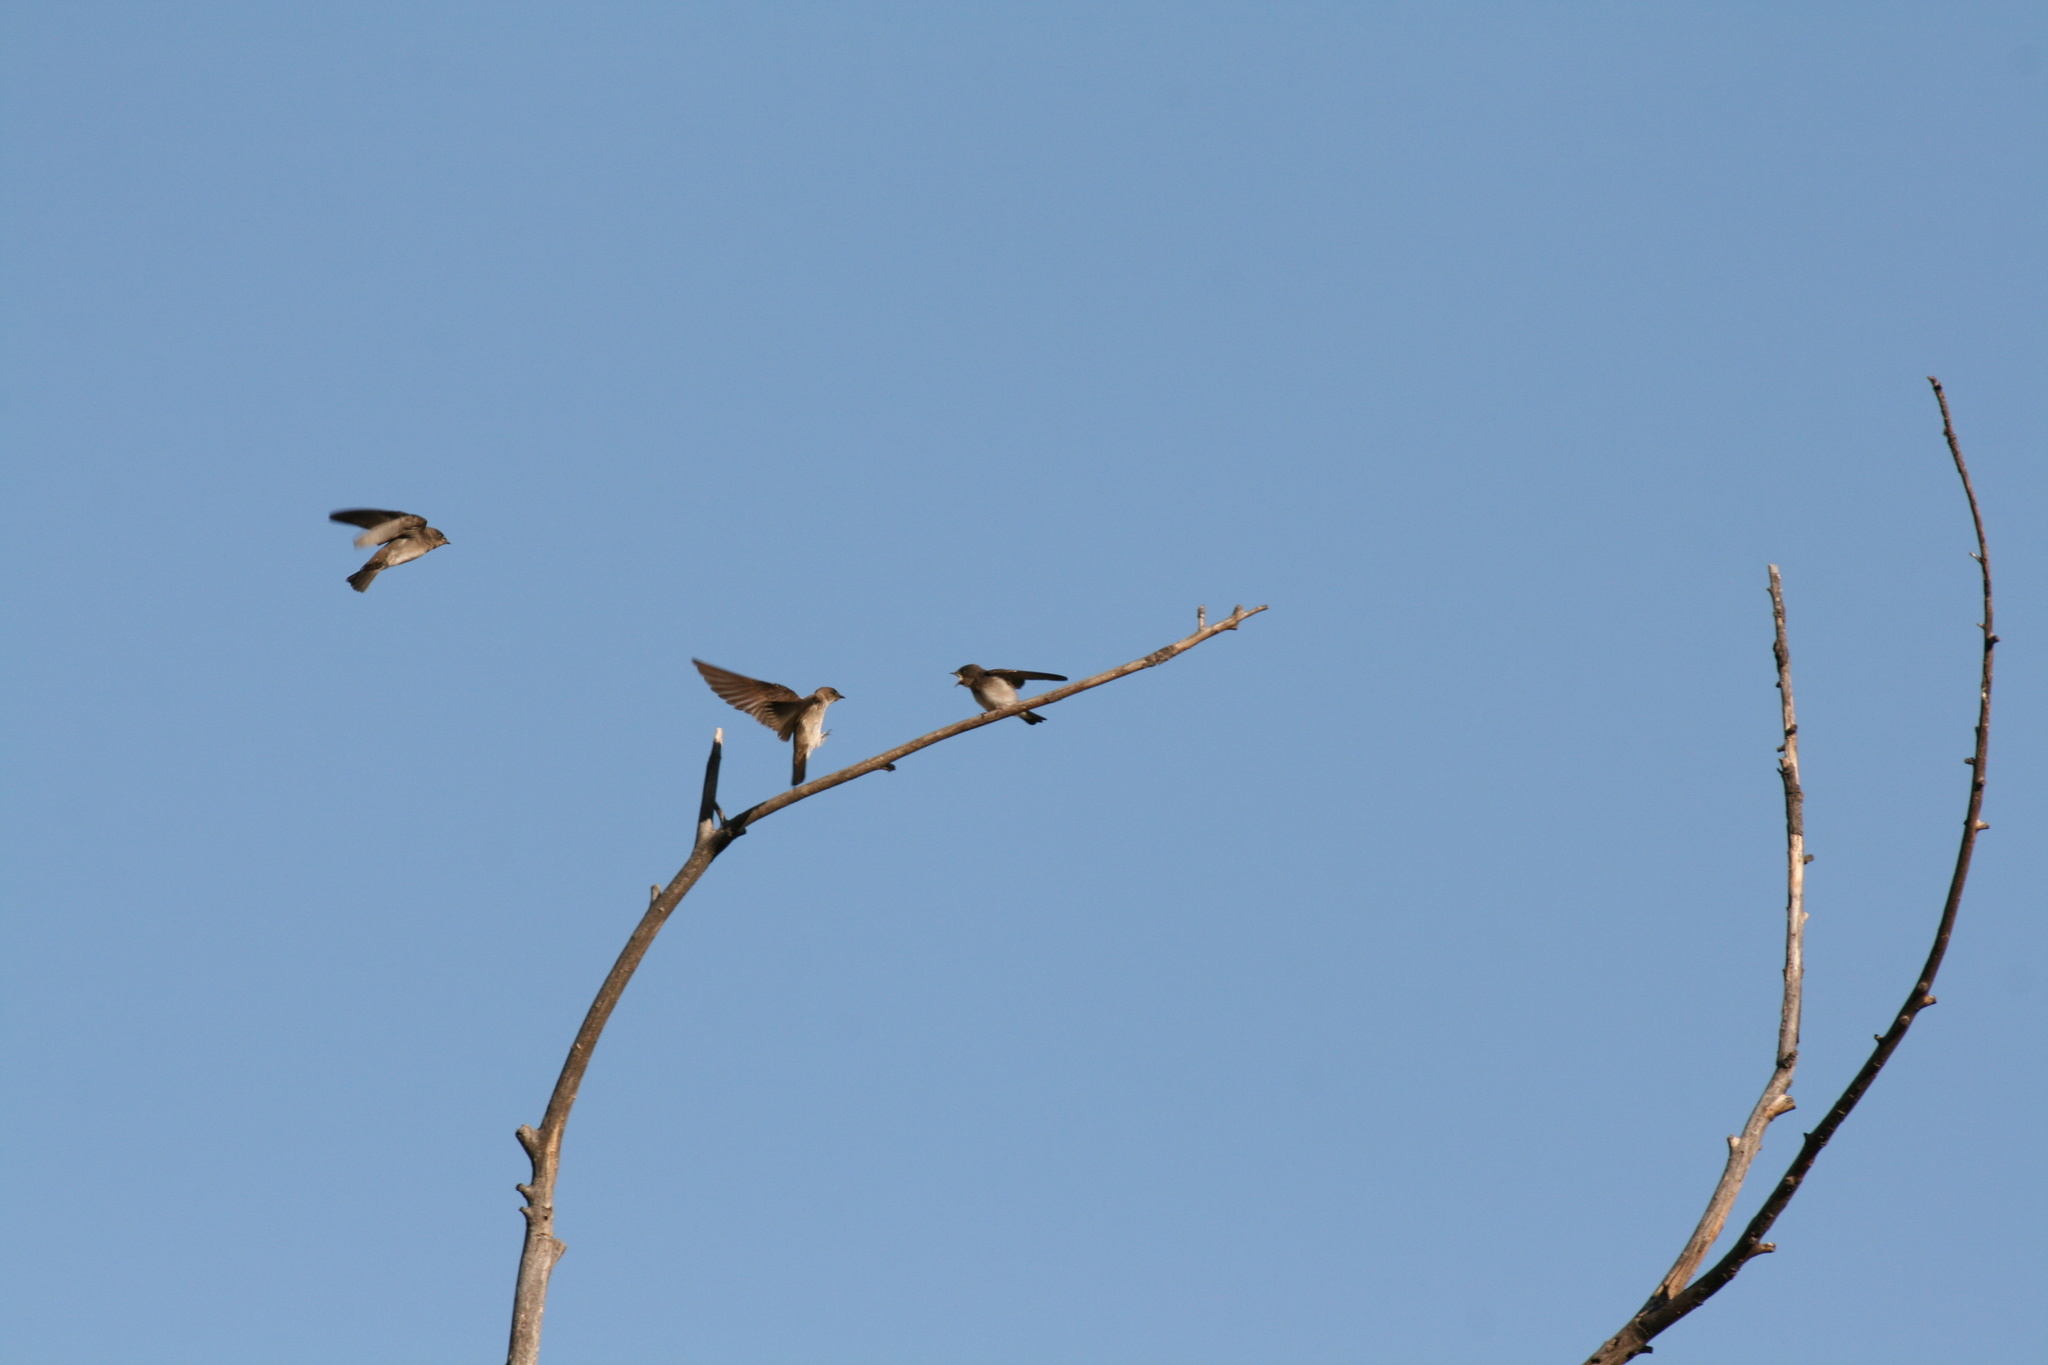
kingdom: Animalia
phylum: Chordata
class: Aves
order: Passeriformes
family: Hirundinidae
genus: Stelgidopteryx
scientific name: Stelgidopteryx serripennis
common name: Northern rough-winged swallow
